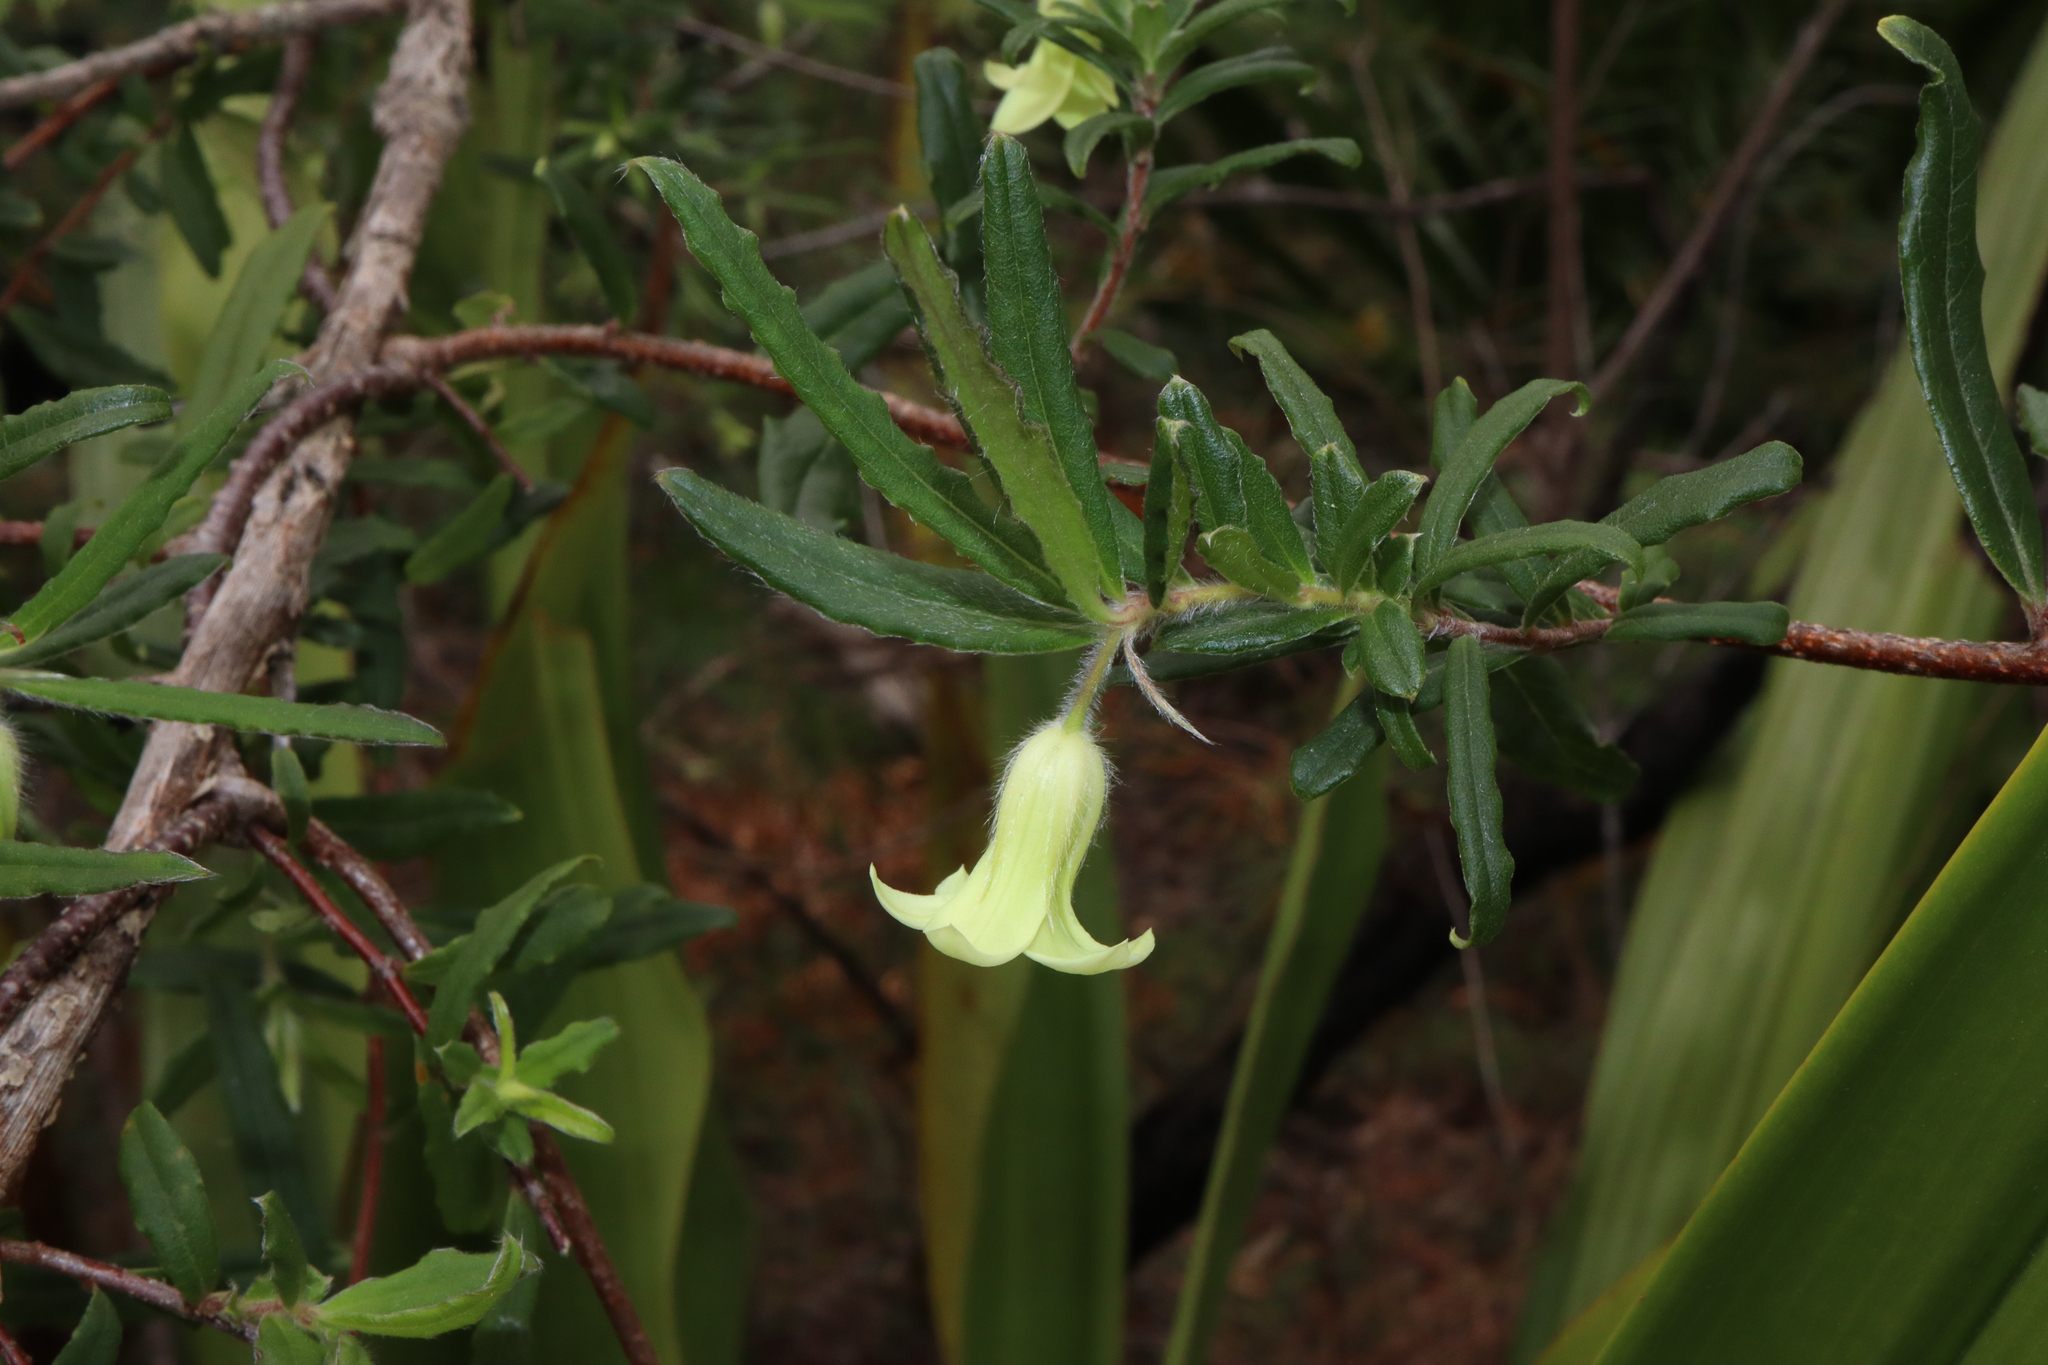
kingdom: Plantae
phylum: Tracheophyta
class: Magnoliopsida
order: Apiales
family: Pittosporaceae
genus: Billardiera
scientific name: Billardiera scandens
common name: Apple-berry
